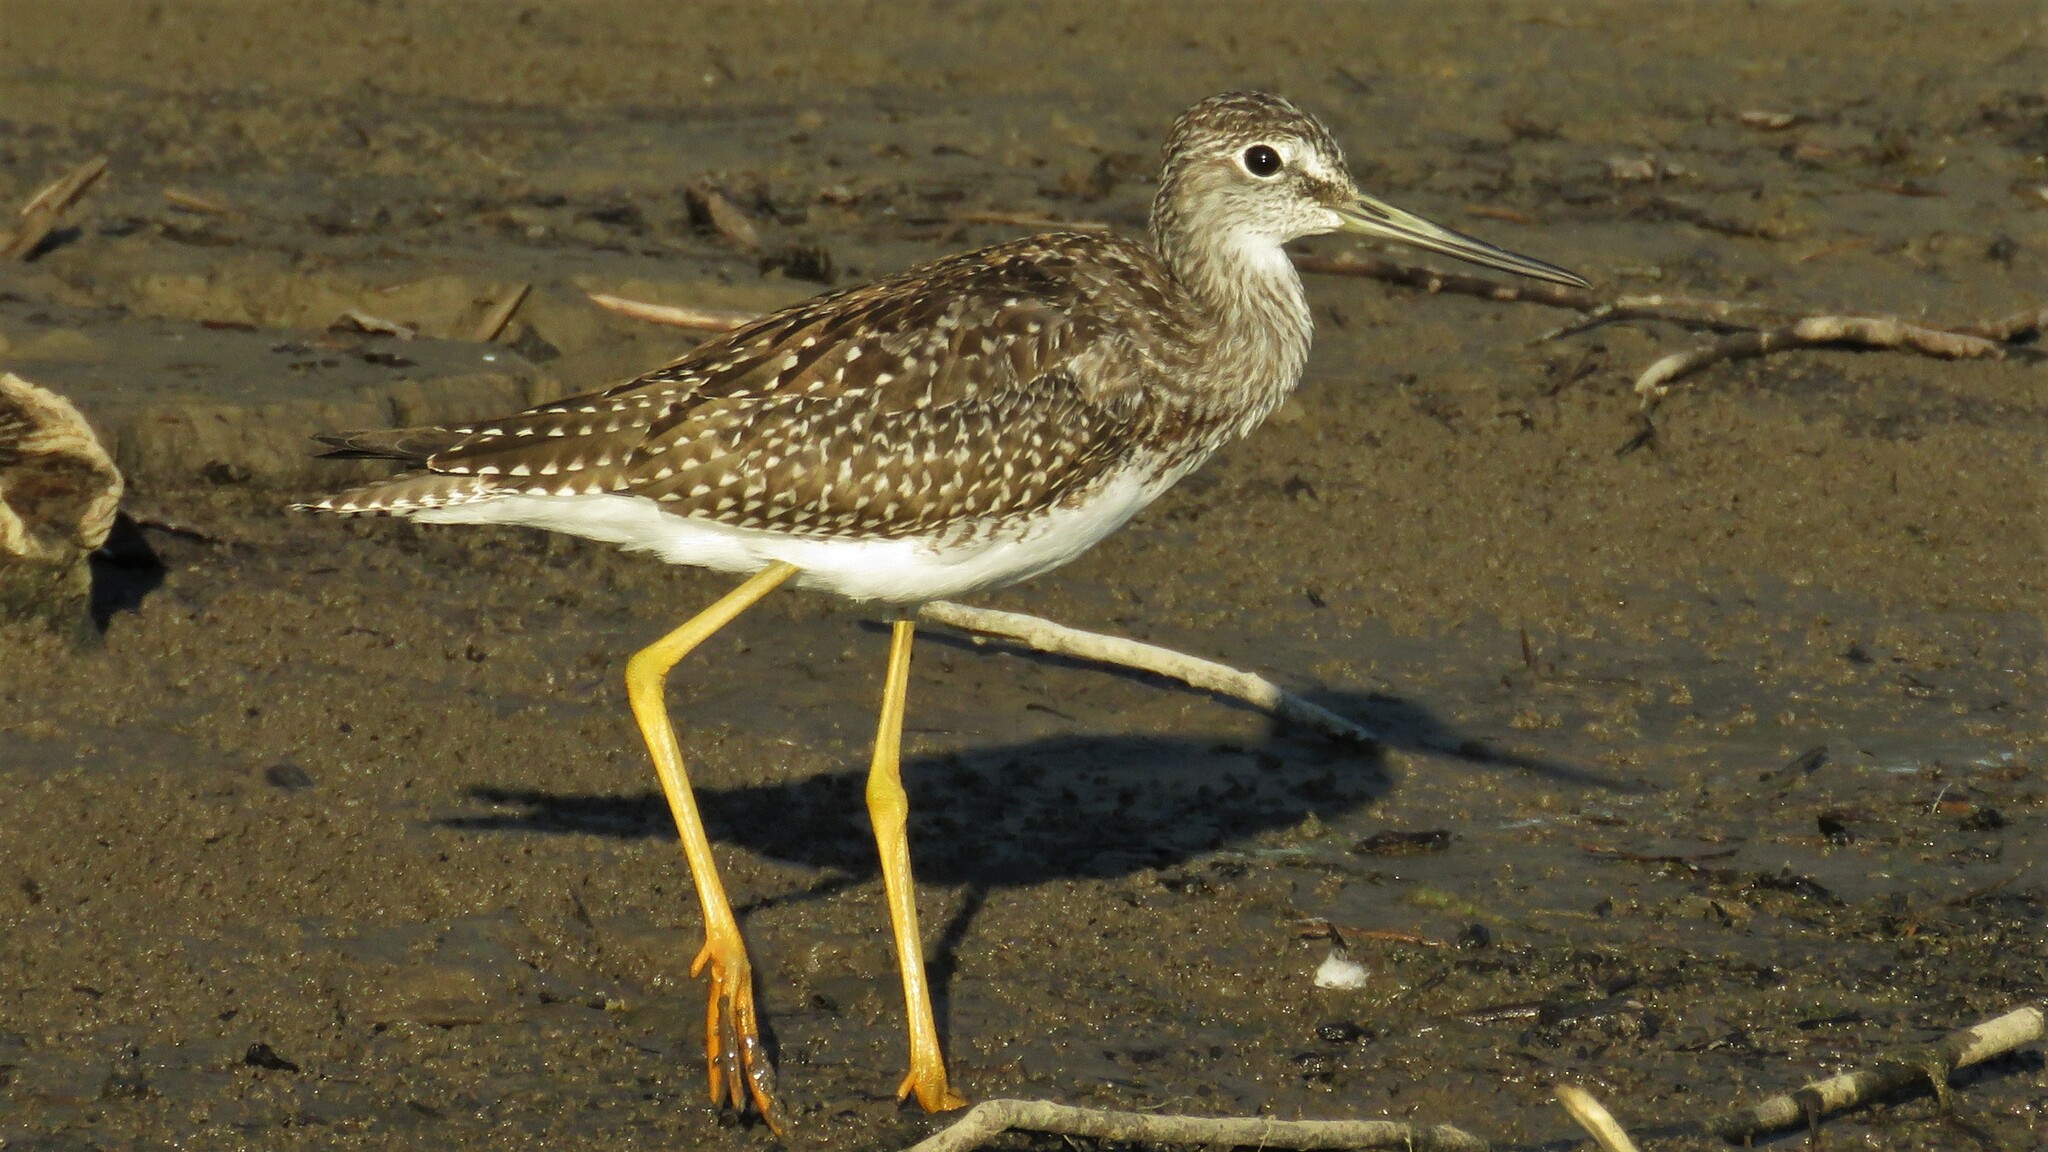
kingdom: Animalia
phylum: Chordata
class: Aves
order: Charadriiformes
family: Scolopacidae
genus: Tringa
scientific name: Tringa melanoleuca
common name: Greater yellowlegs
